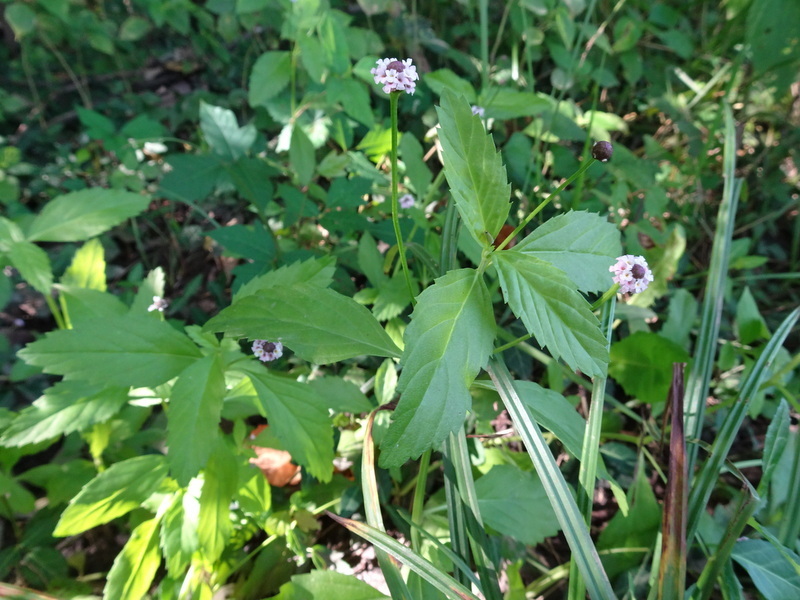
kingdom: Plantae
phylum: Tracheophyta
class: Magnoliopsida
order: Lamiales
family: Verbenaceae
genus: Phyla
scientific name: Phyla lanceolata
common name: Northern fogfruit
